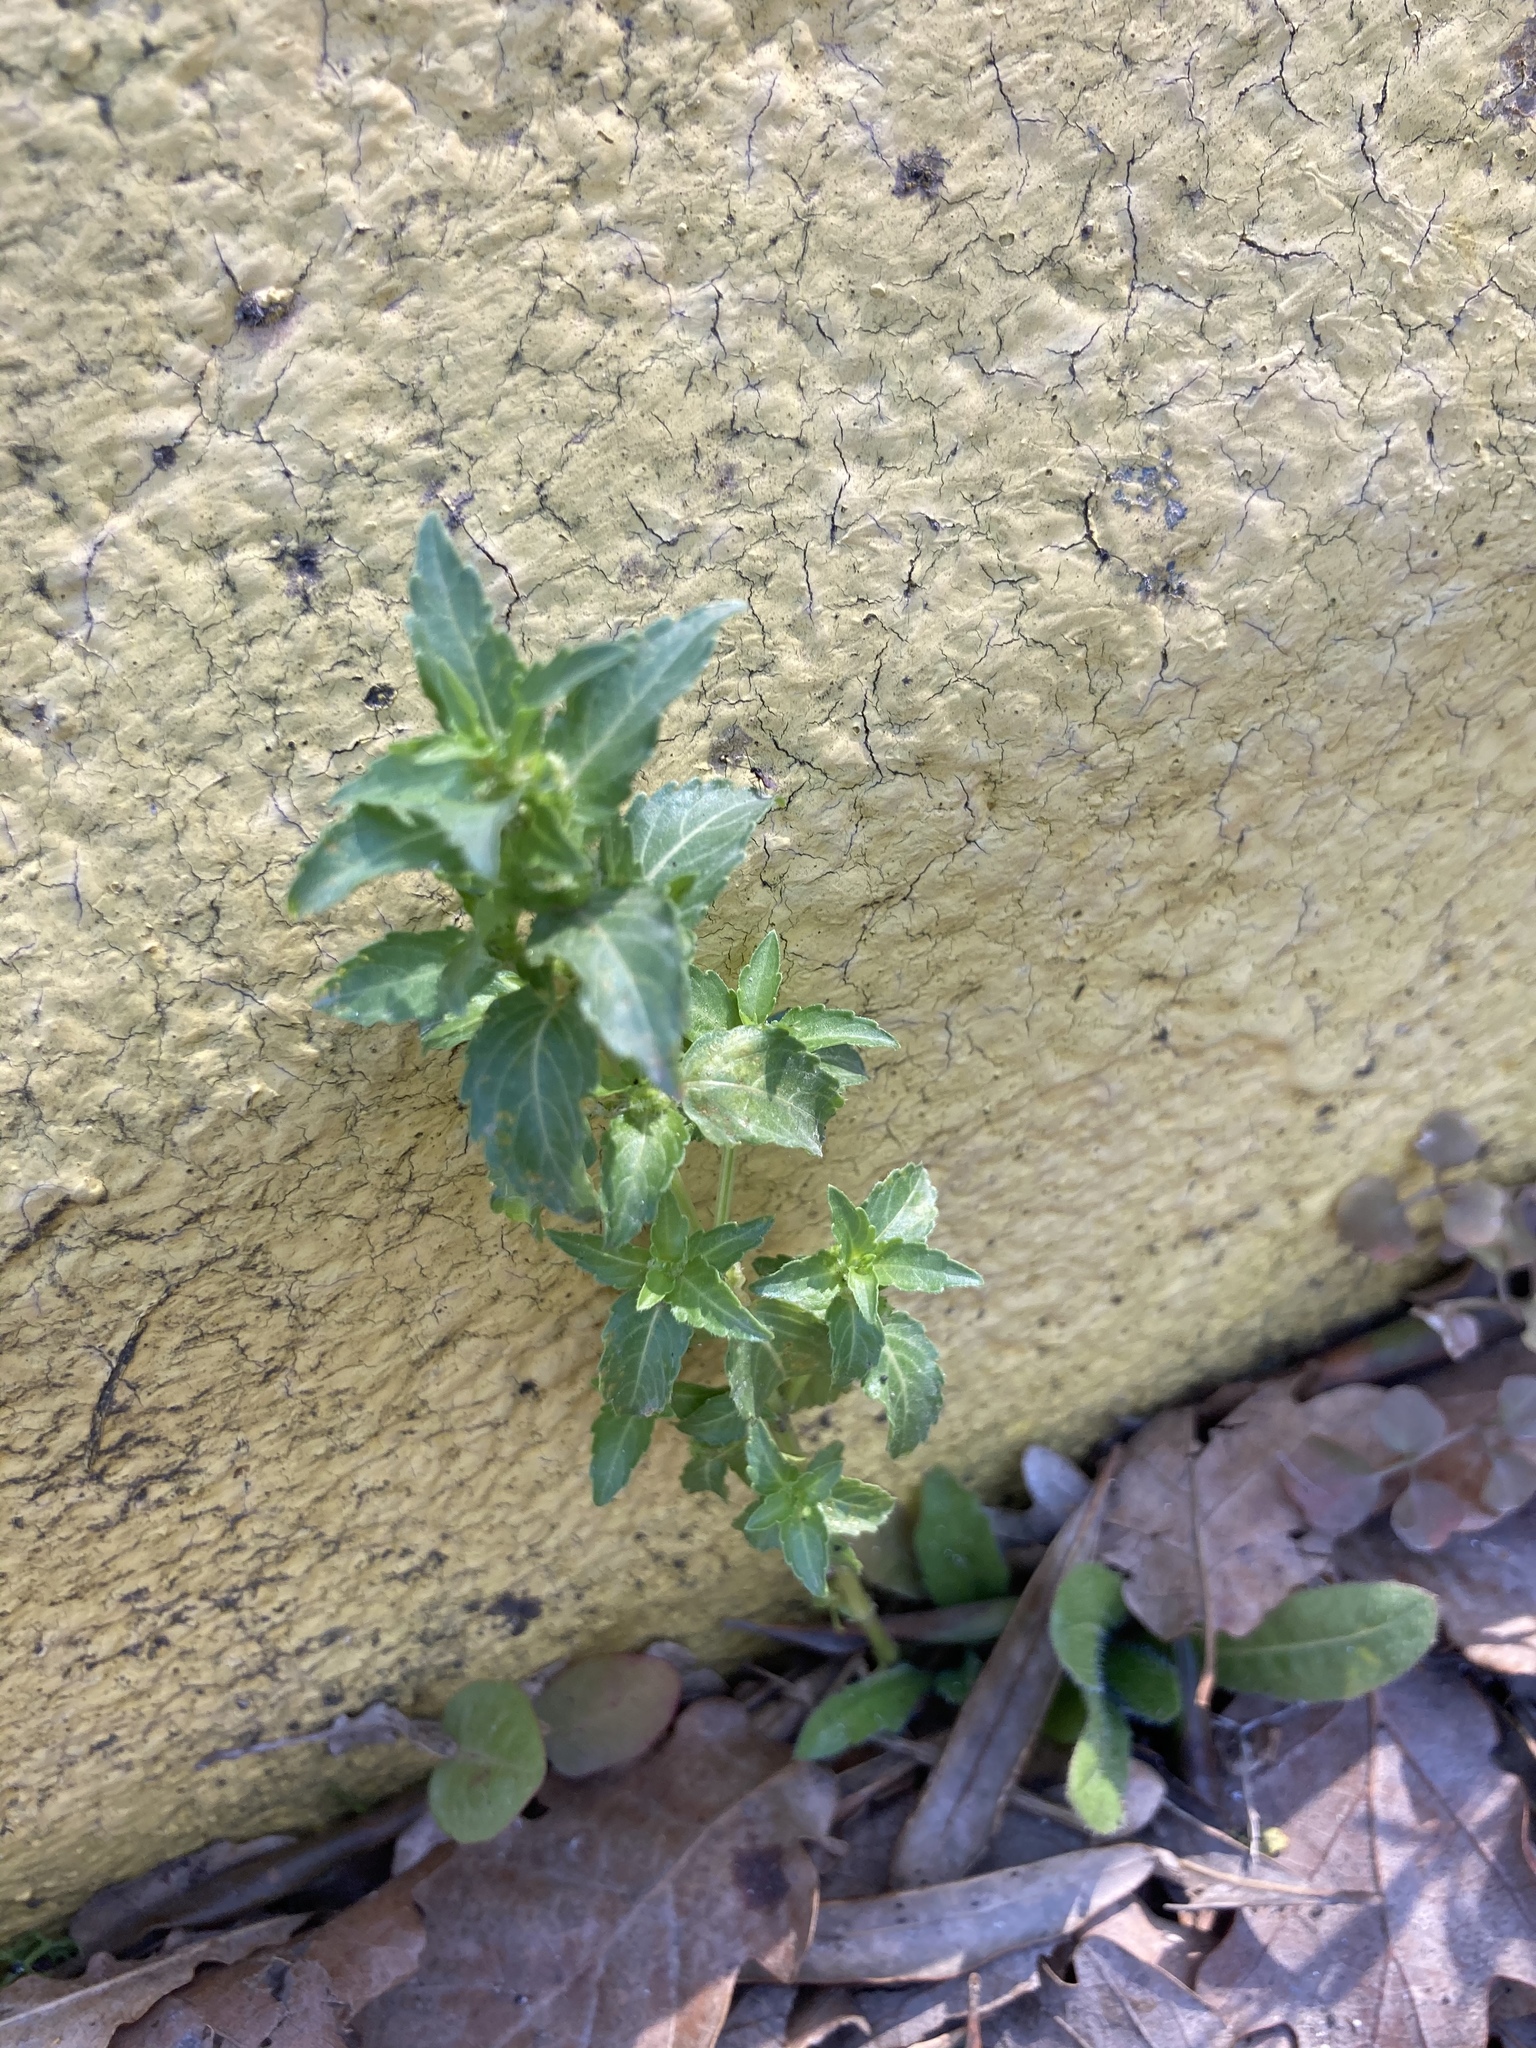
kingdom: Plantae
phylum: Tracheophyta
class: Magnoliopsida
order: Malpighiales
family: Euphorbiaceae
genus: Mercurialis
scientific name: Mercurialis annua
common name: Annual mercury
